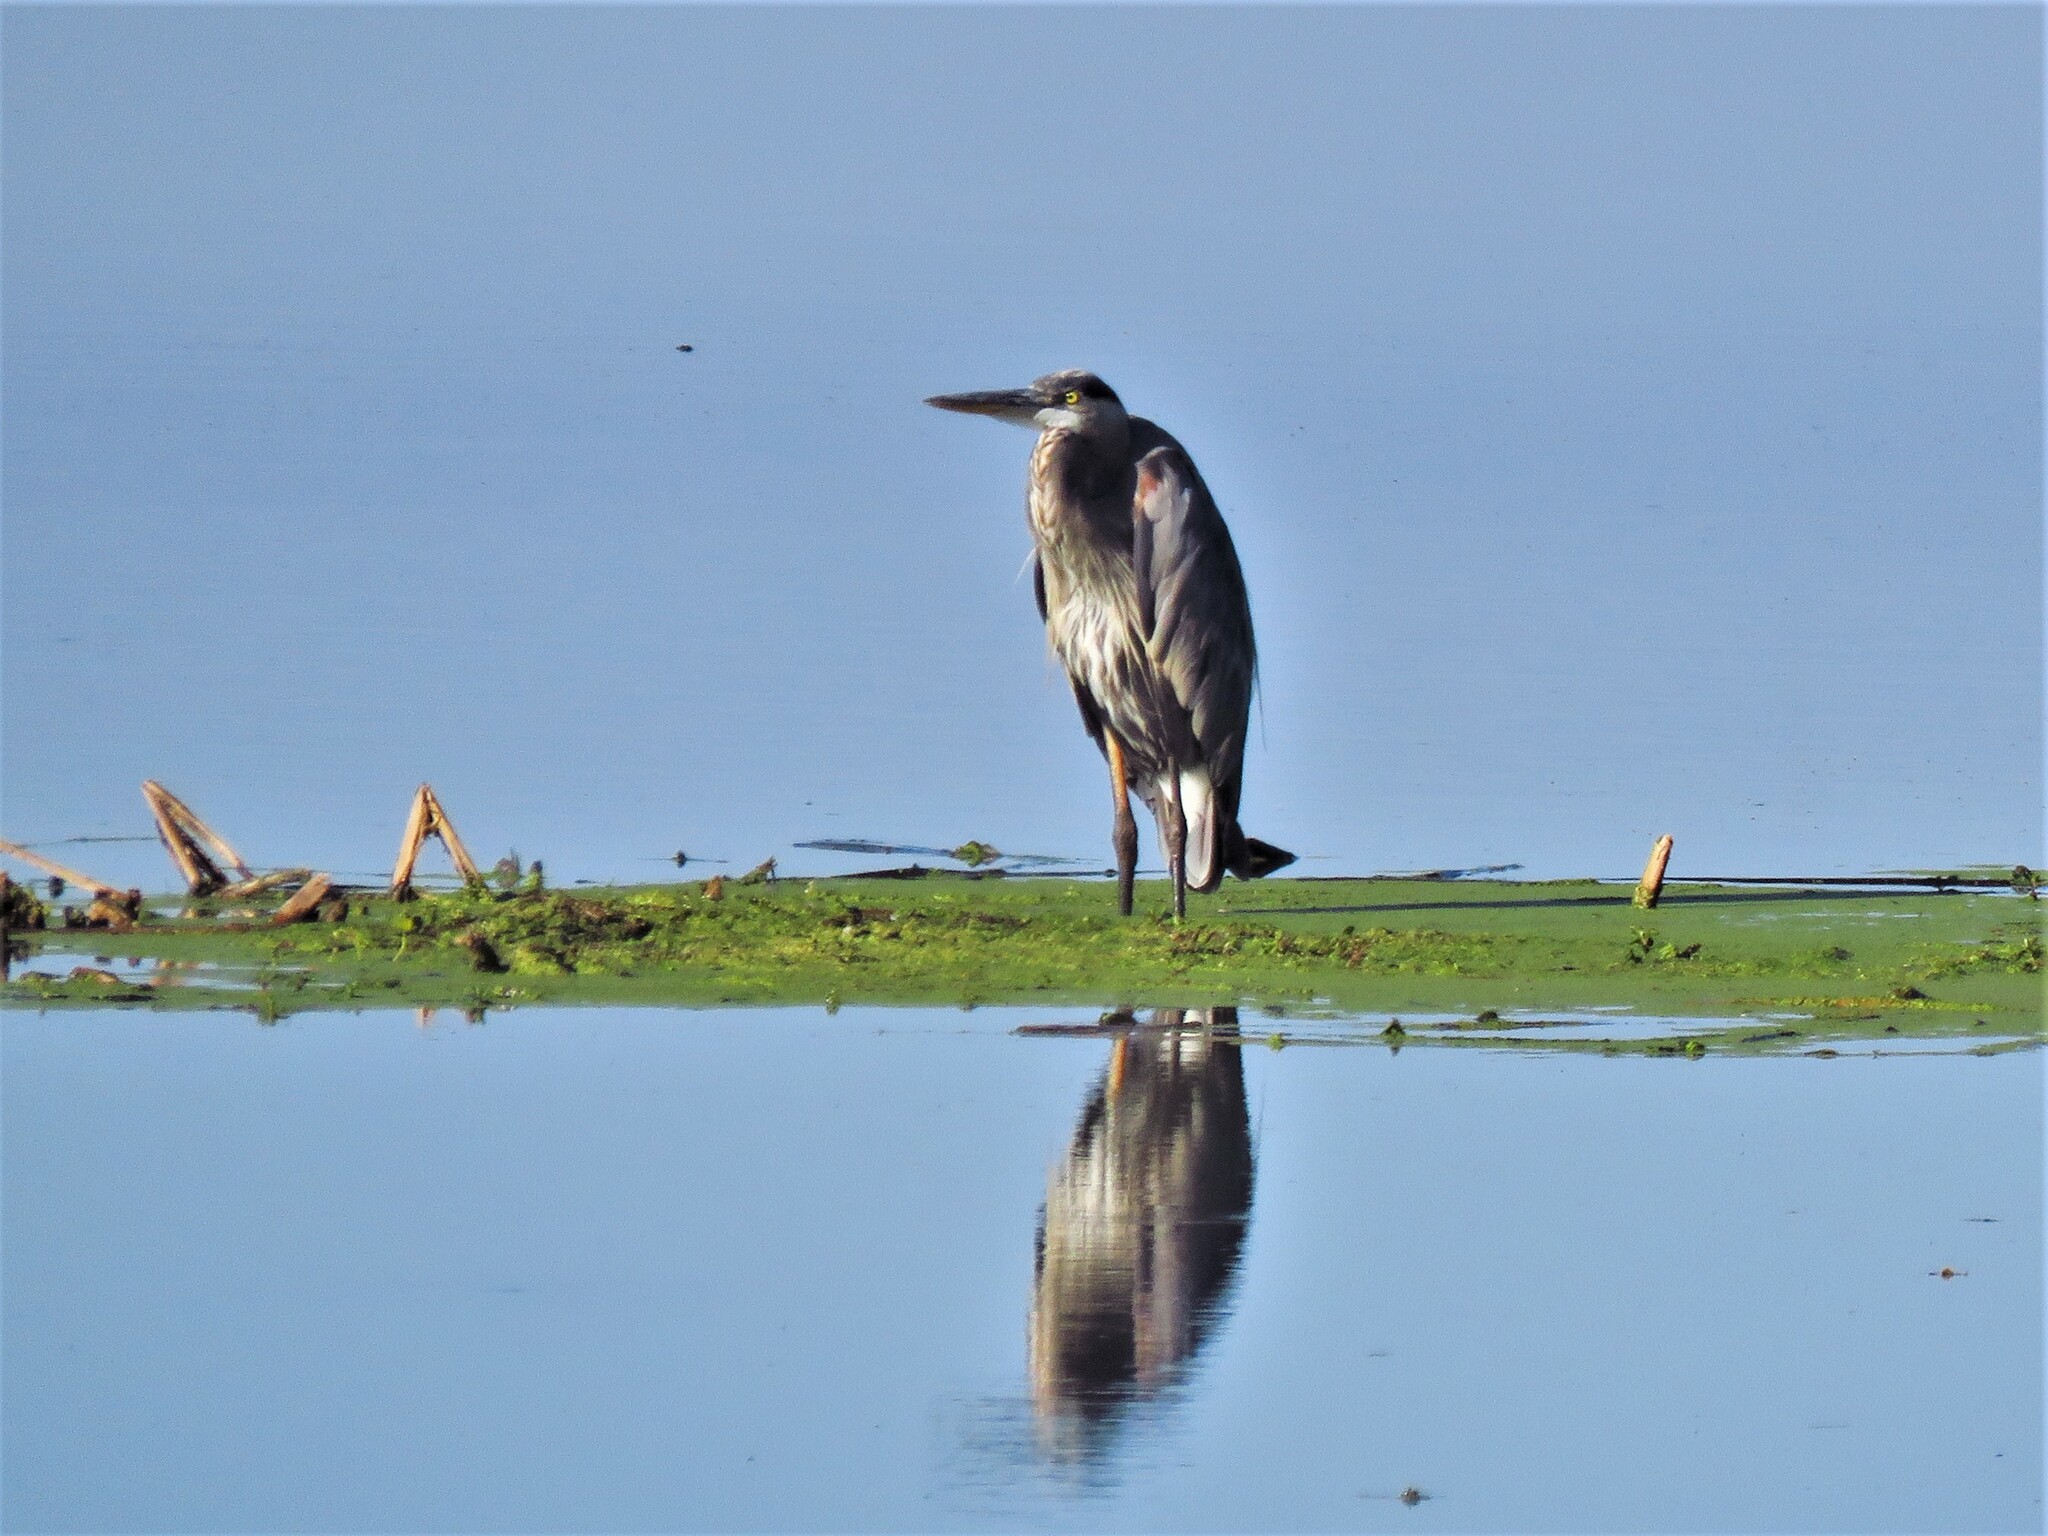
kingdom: Animalia
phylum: Chordata
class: Aves
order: Pelecaniformes
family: Ardeidae
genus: Ardea
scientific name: Ardea herodias
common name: Great blue heron
